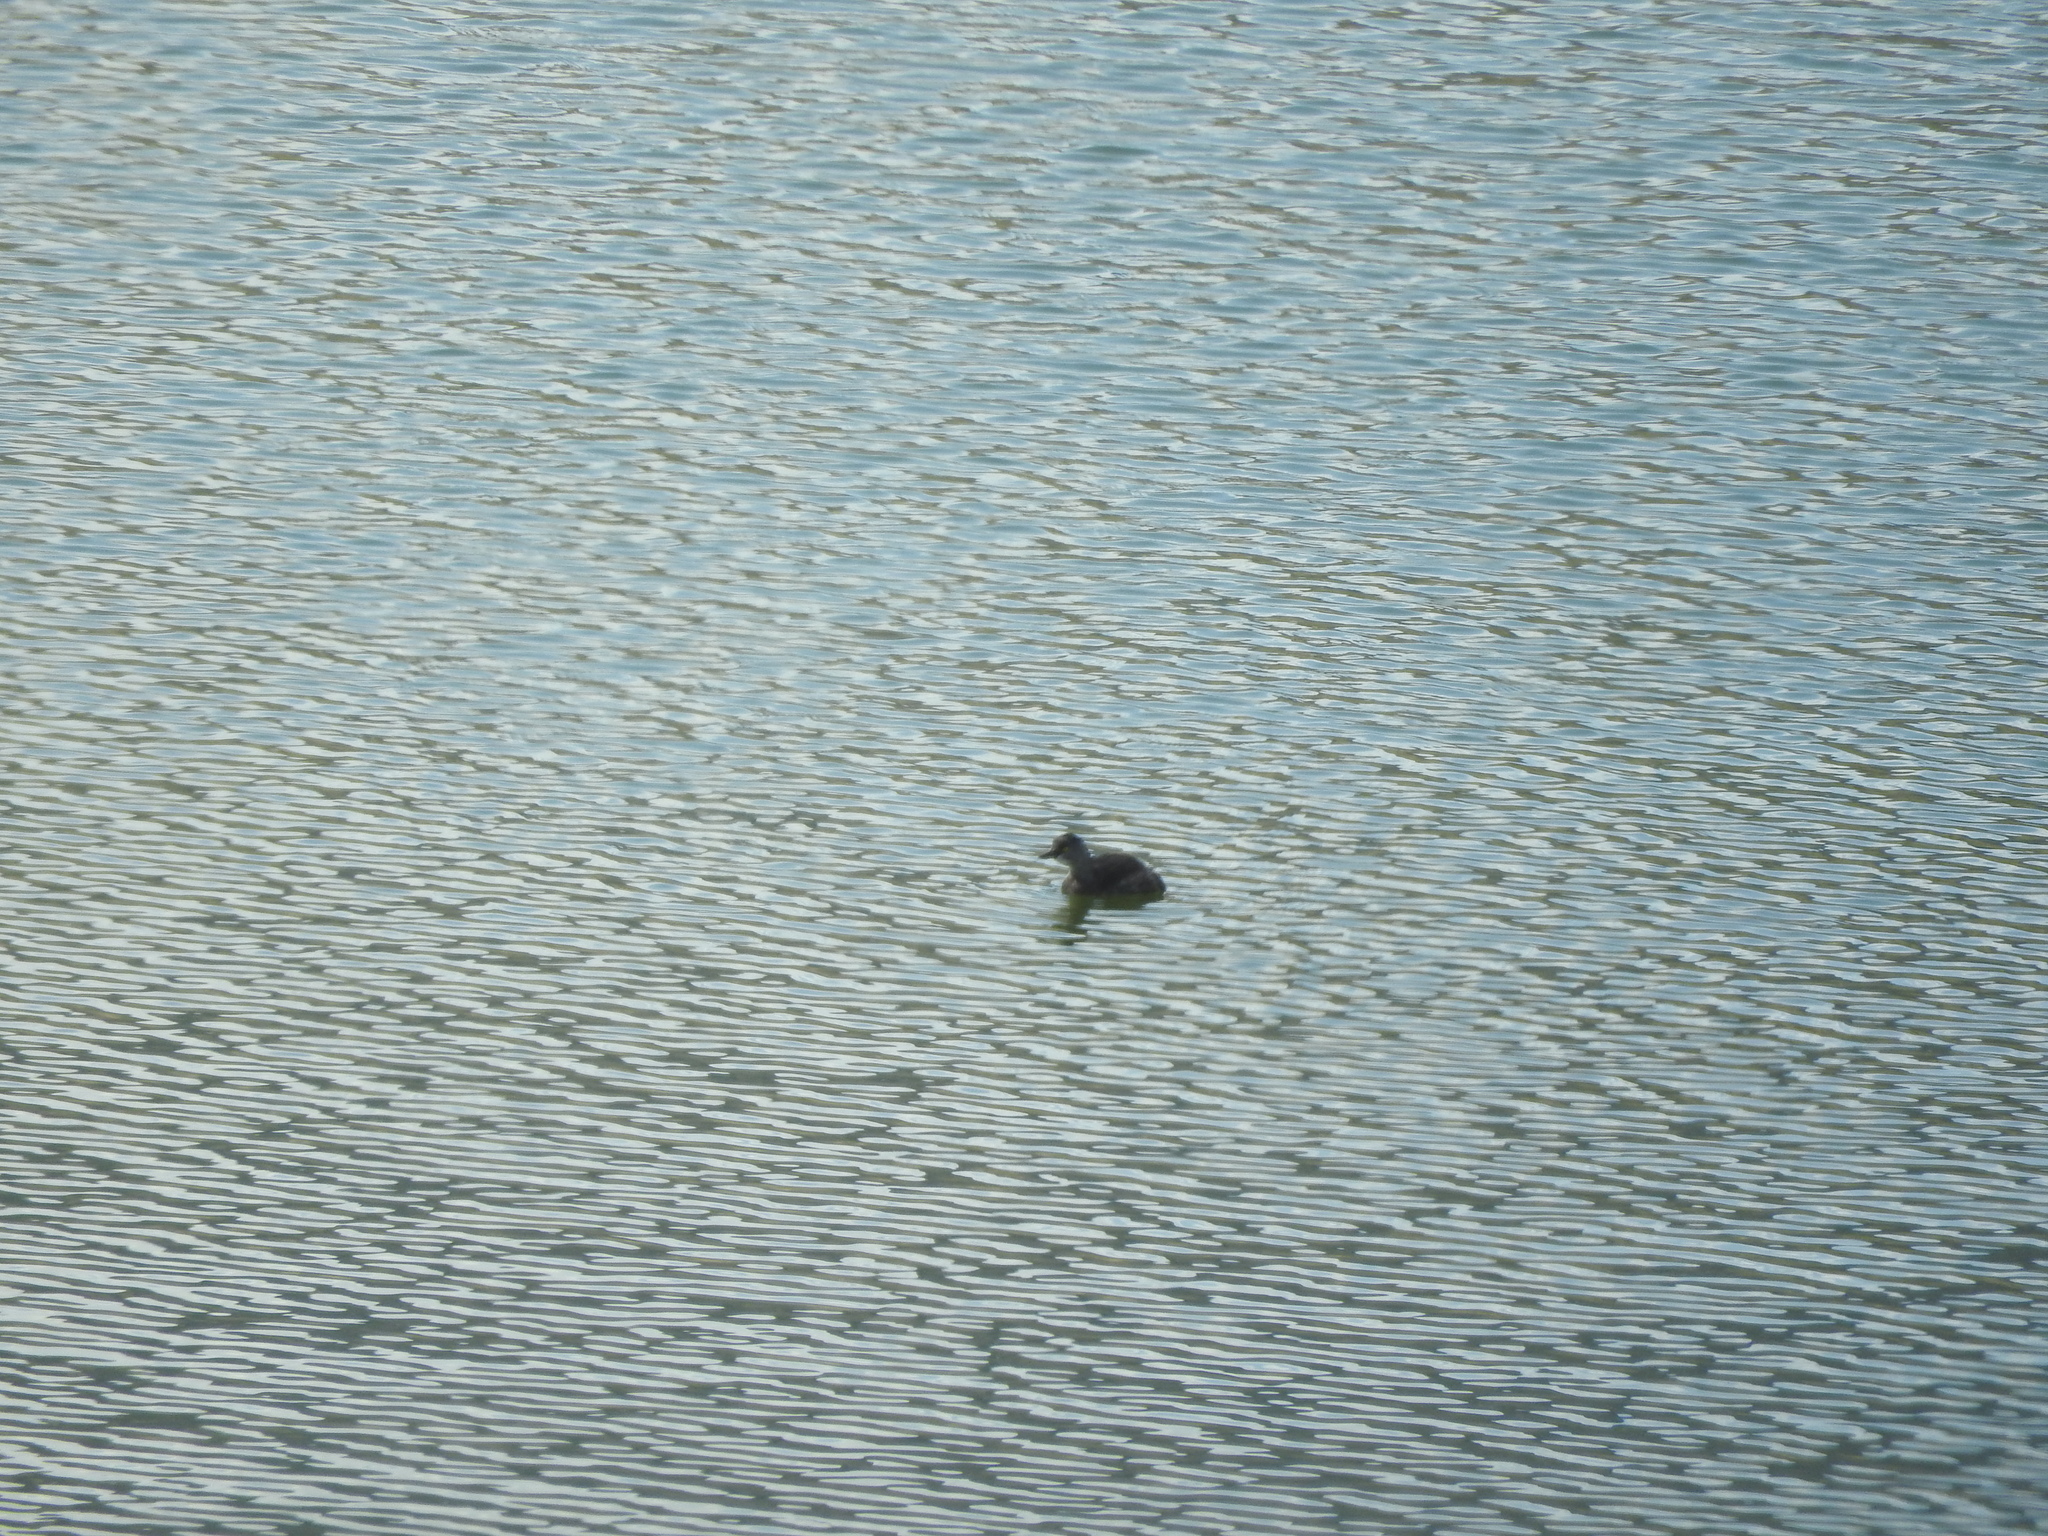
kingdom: Animalia
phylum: Chordata
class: Aves
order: Podicipediformes
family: Podicipedidae
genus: Tachybaptus
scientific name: Tachybaptus dominicus
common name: Least grebe
